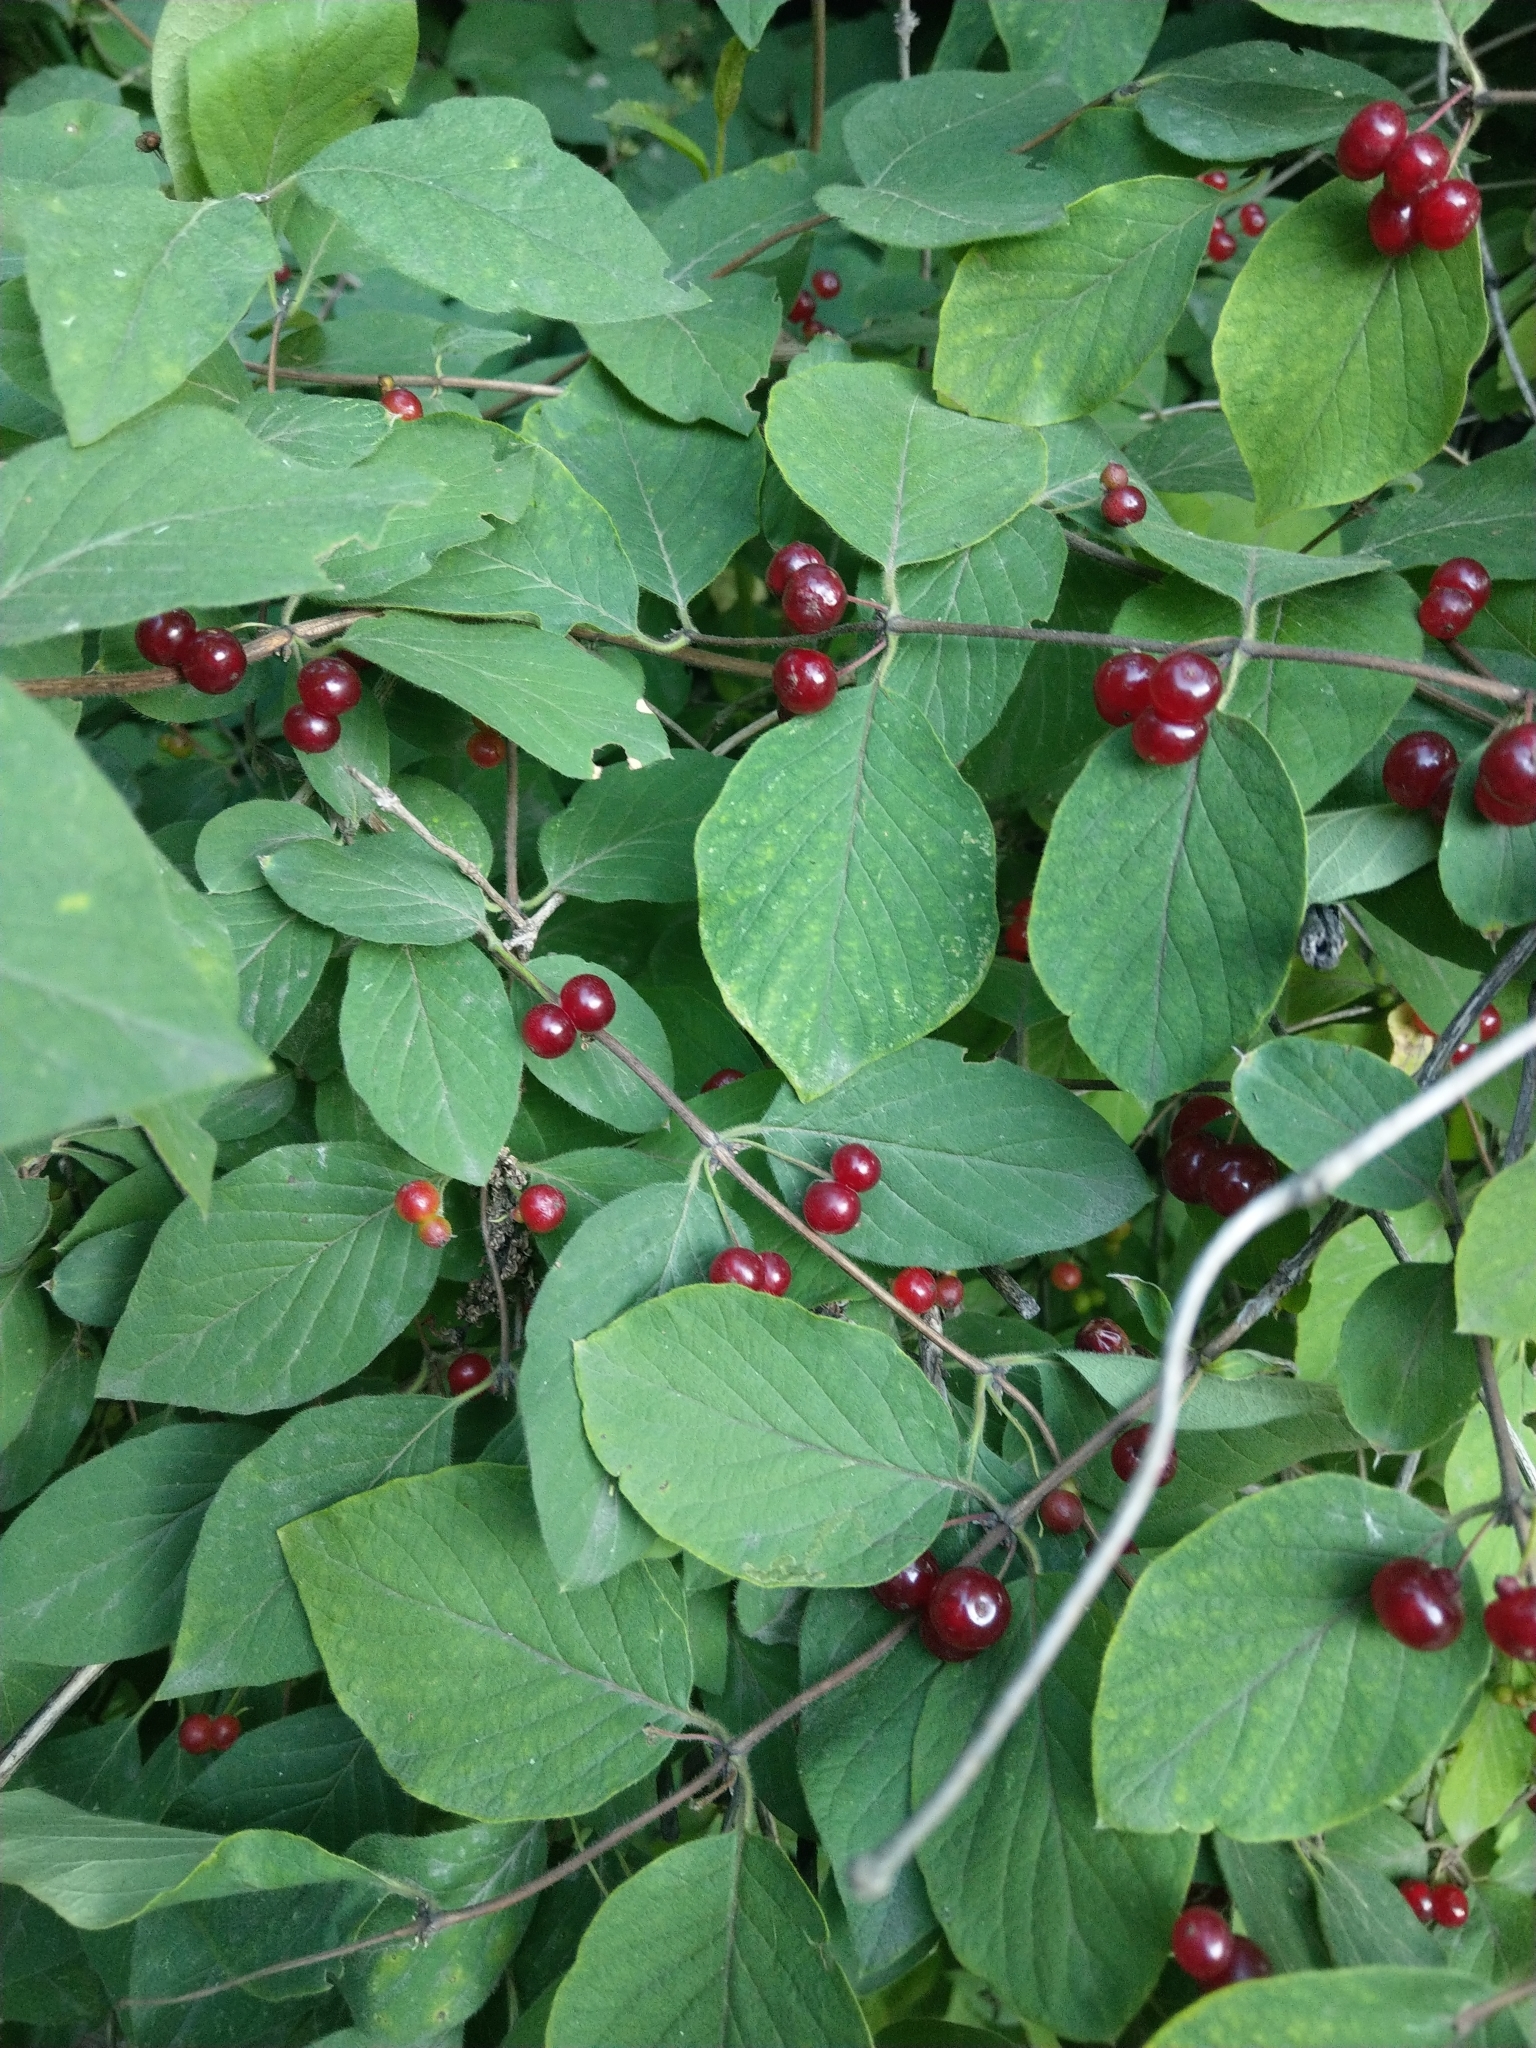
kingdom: Plantae
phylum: Tracheophyta
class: Magnoliopsida
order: Dipsacales
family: Caprifoliaceae
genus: Lonicera
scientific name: Lonicera xylosteum
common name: Fly honeysuckle
